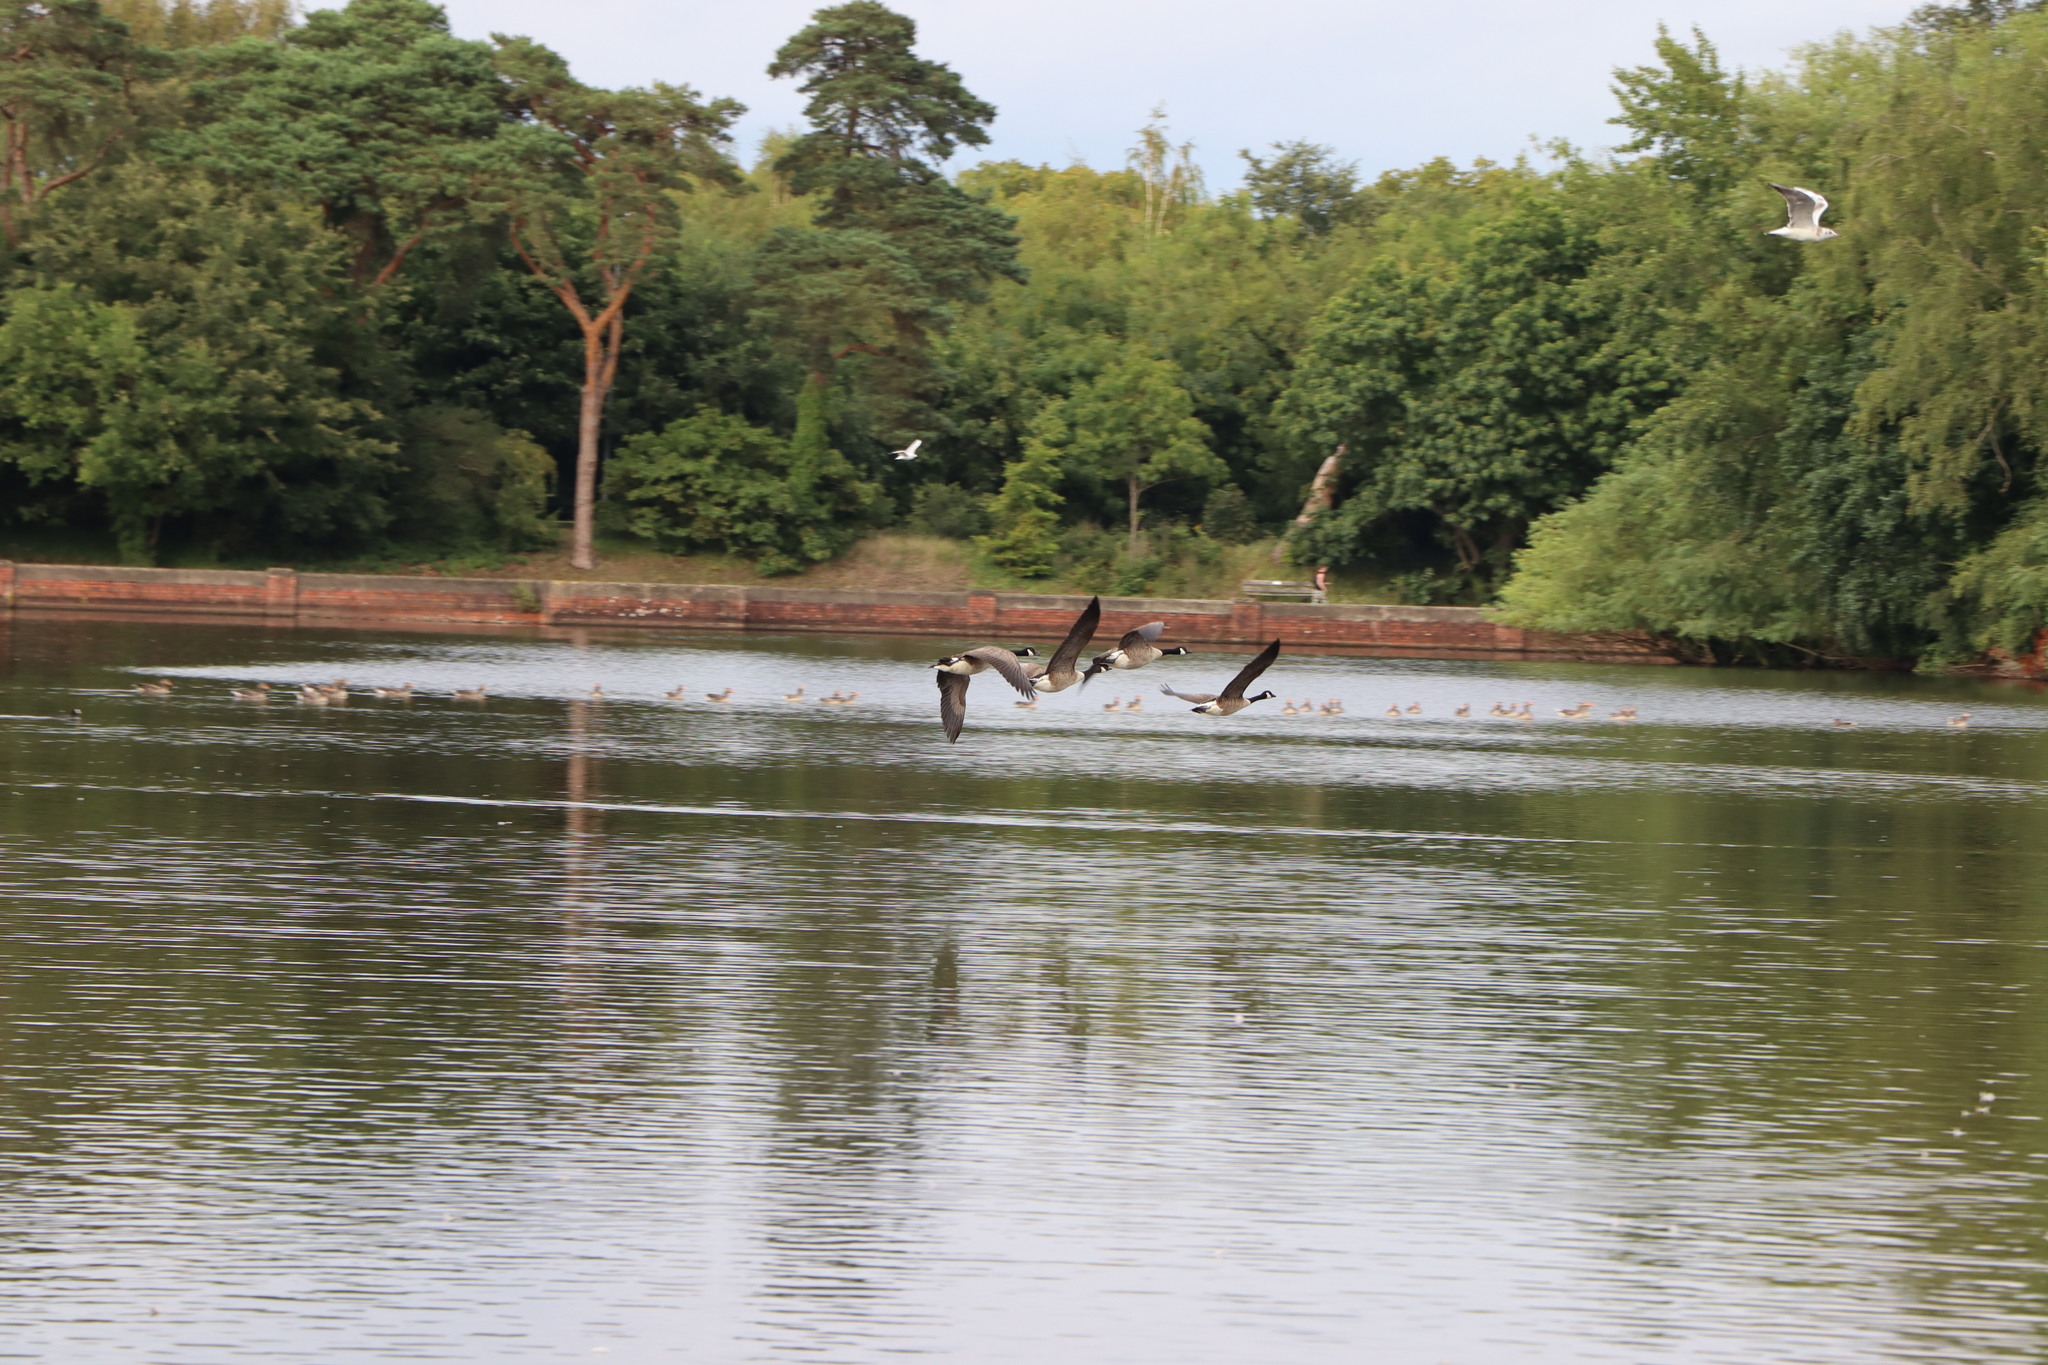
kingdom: Animalia
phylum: Chordata
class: Aves
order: Anseriformes
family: Anatidae
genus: Branta
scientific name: Branta canadensis
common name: Canada goose
